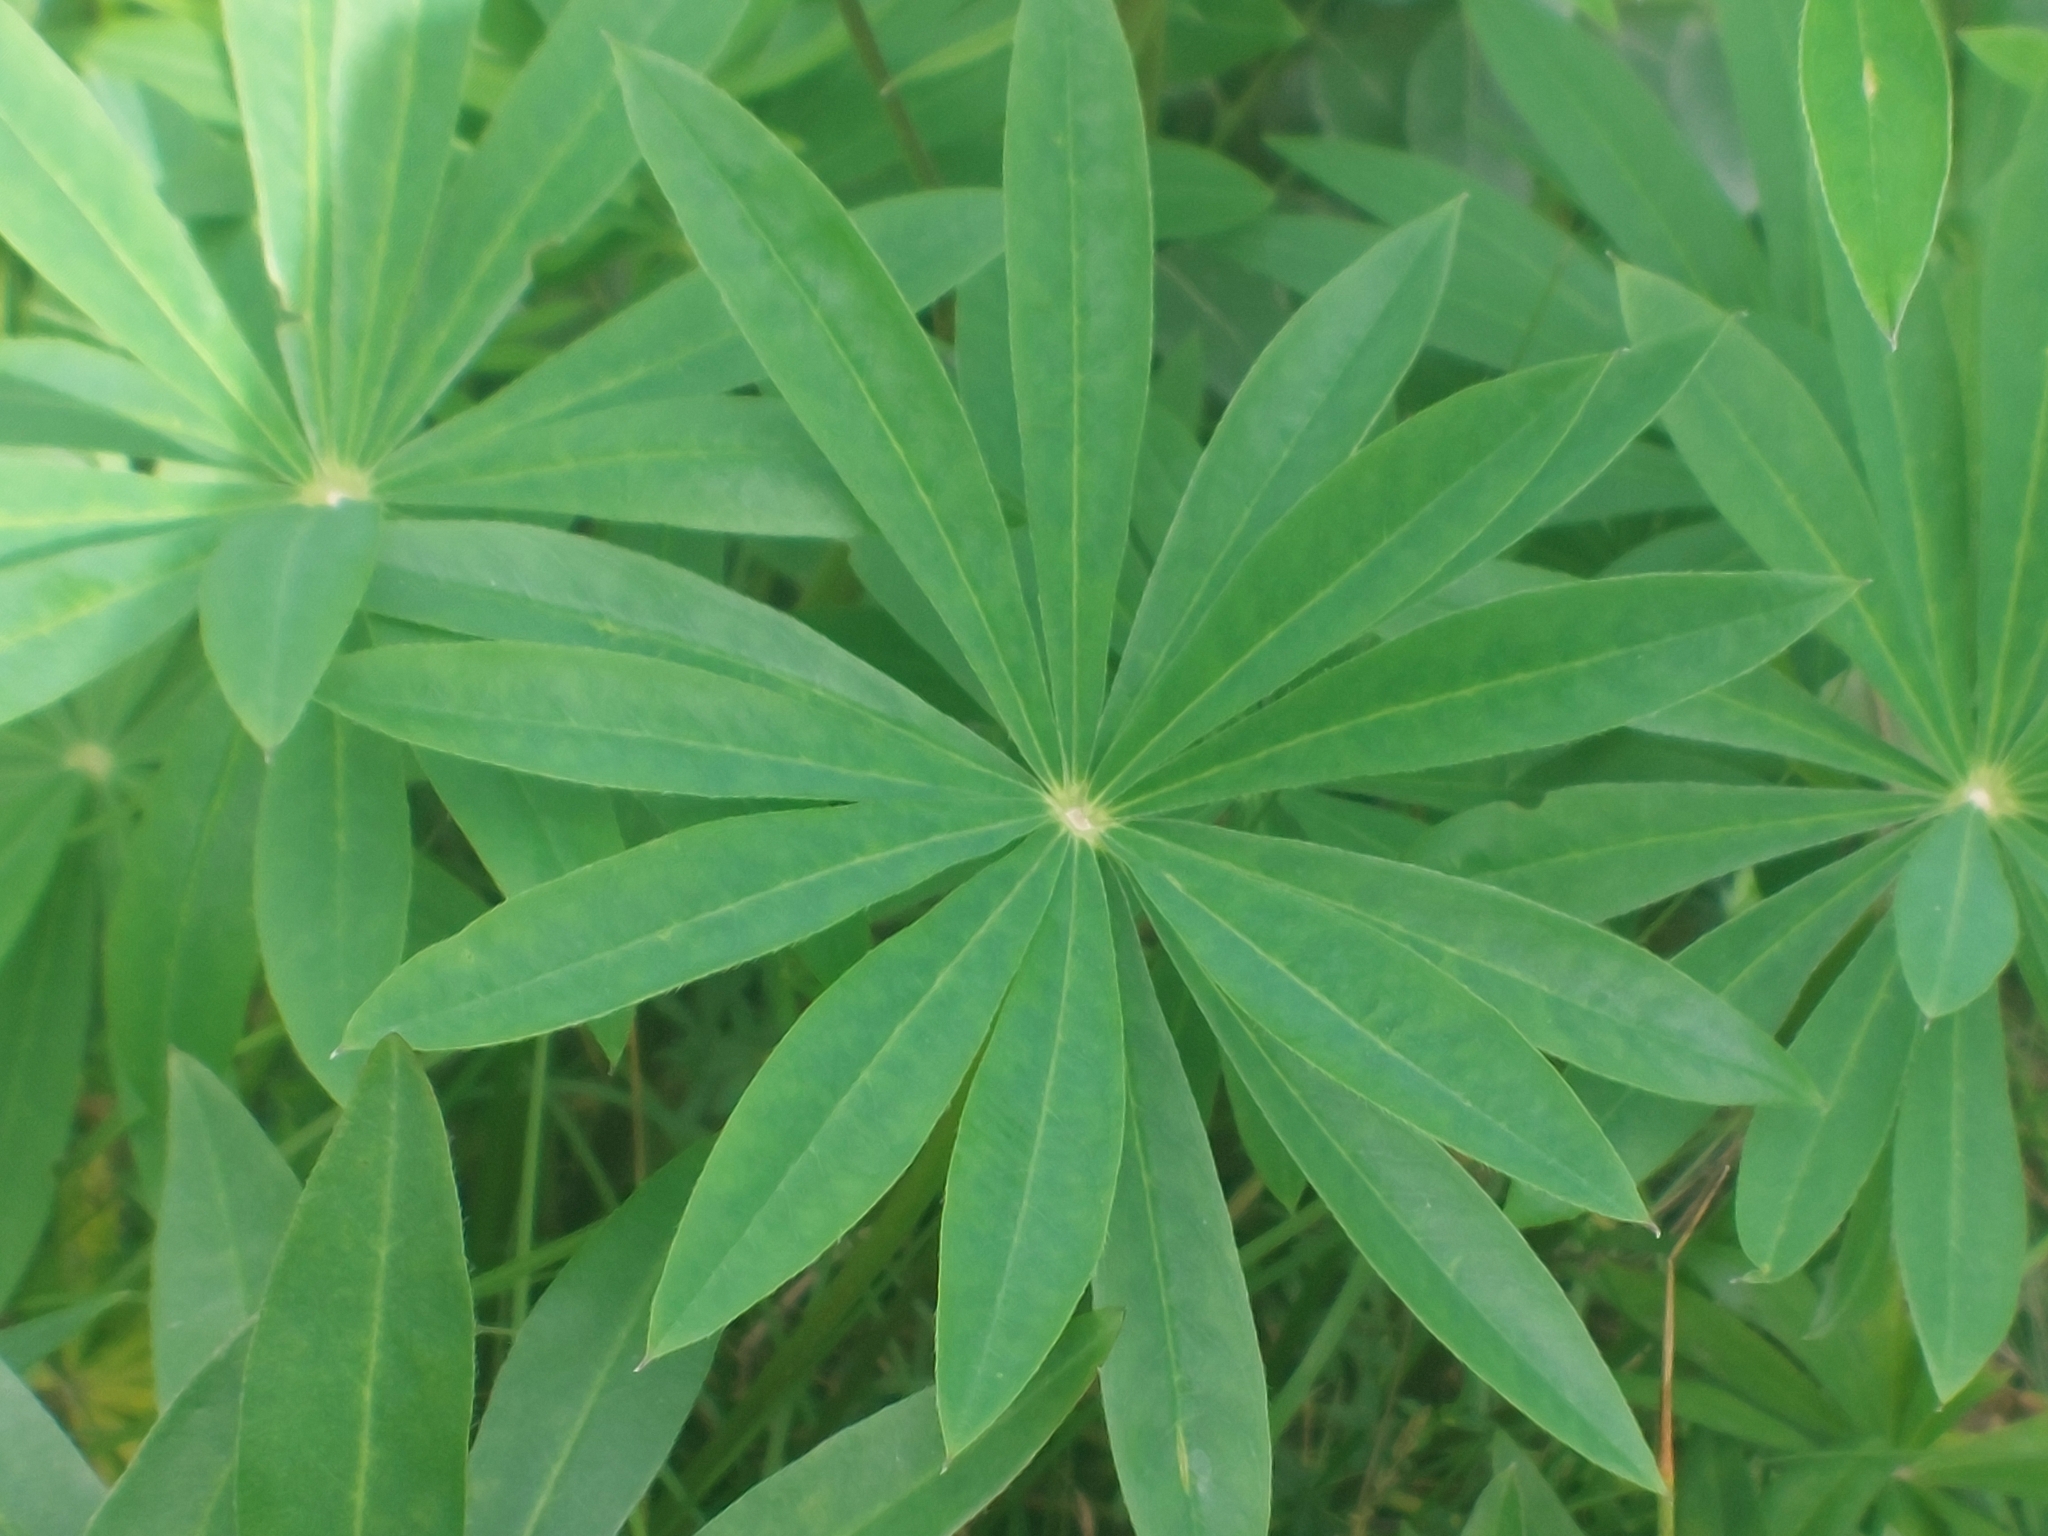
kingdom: Plantae
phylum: Tracheophyta
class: Magnoliopsida
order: Fabales
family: Fabaceae
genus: Lupinus
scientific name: Lupinus polyphyllus
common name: Garden lupin
